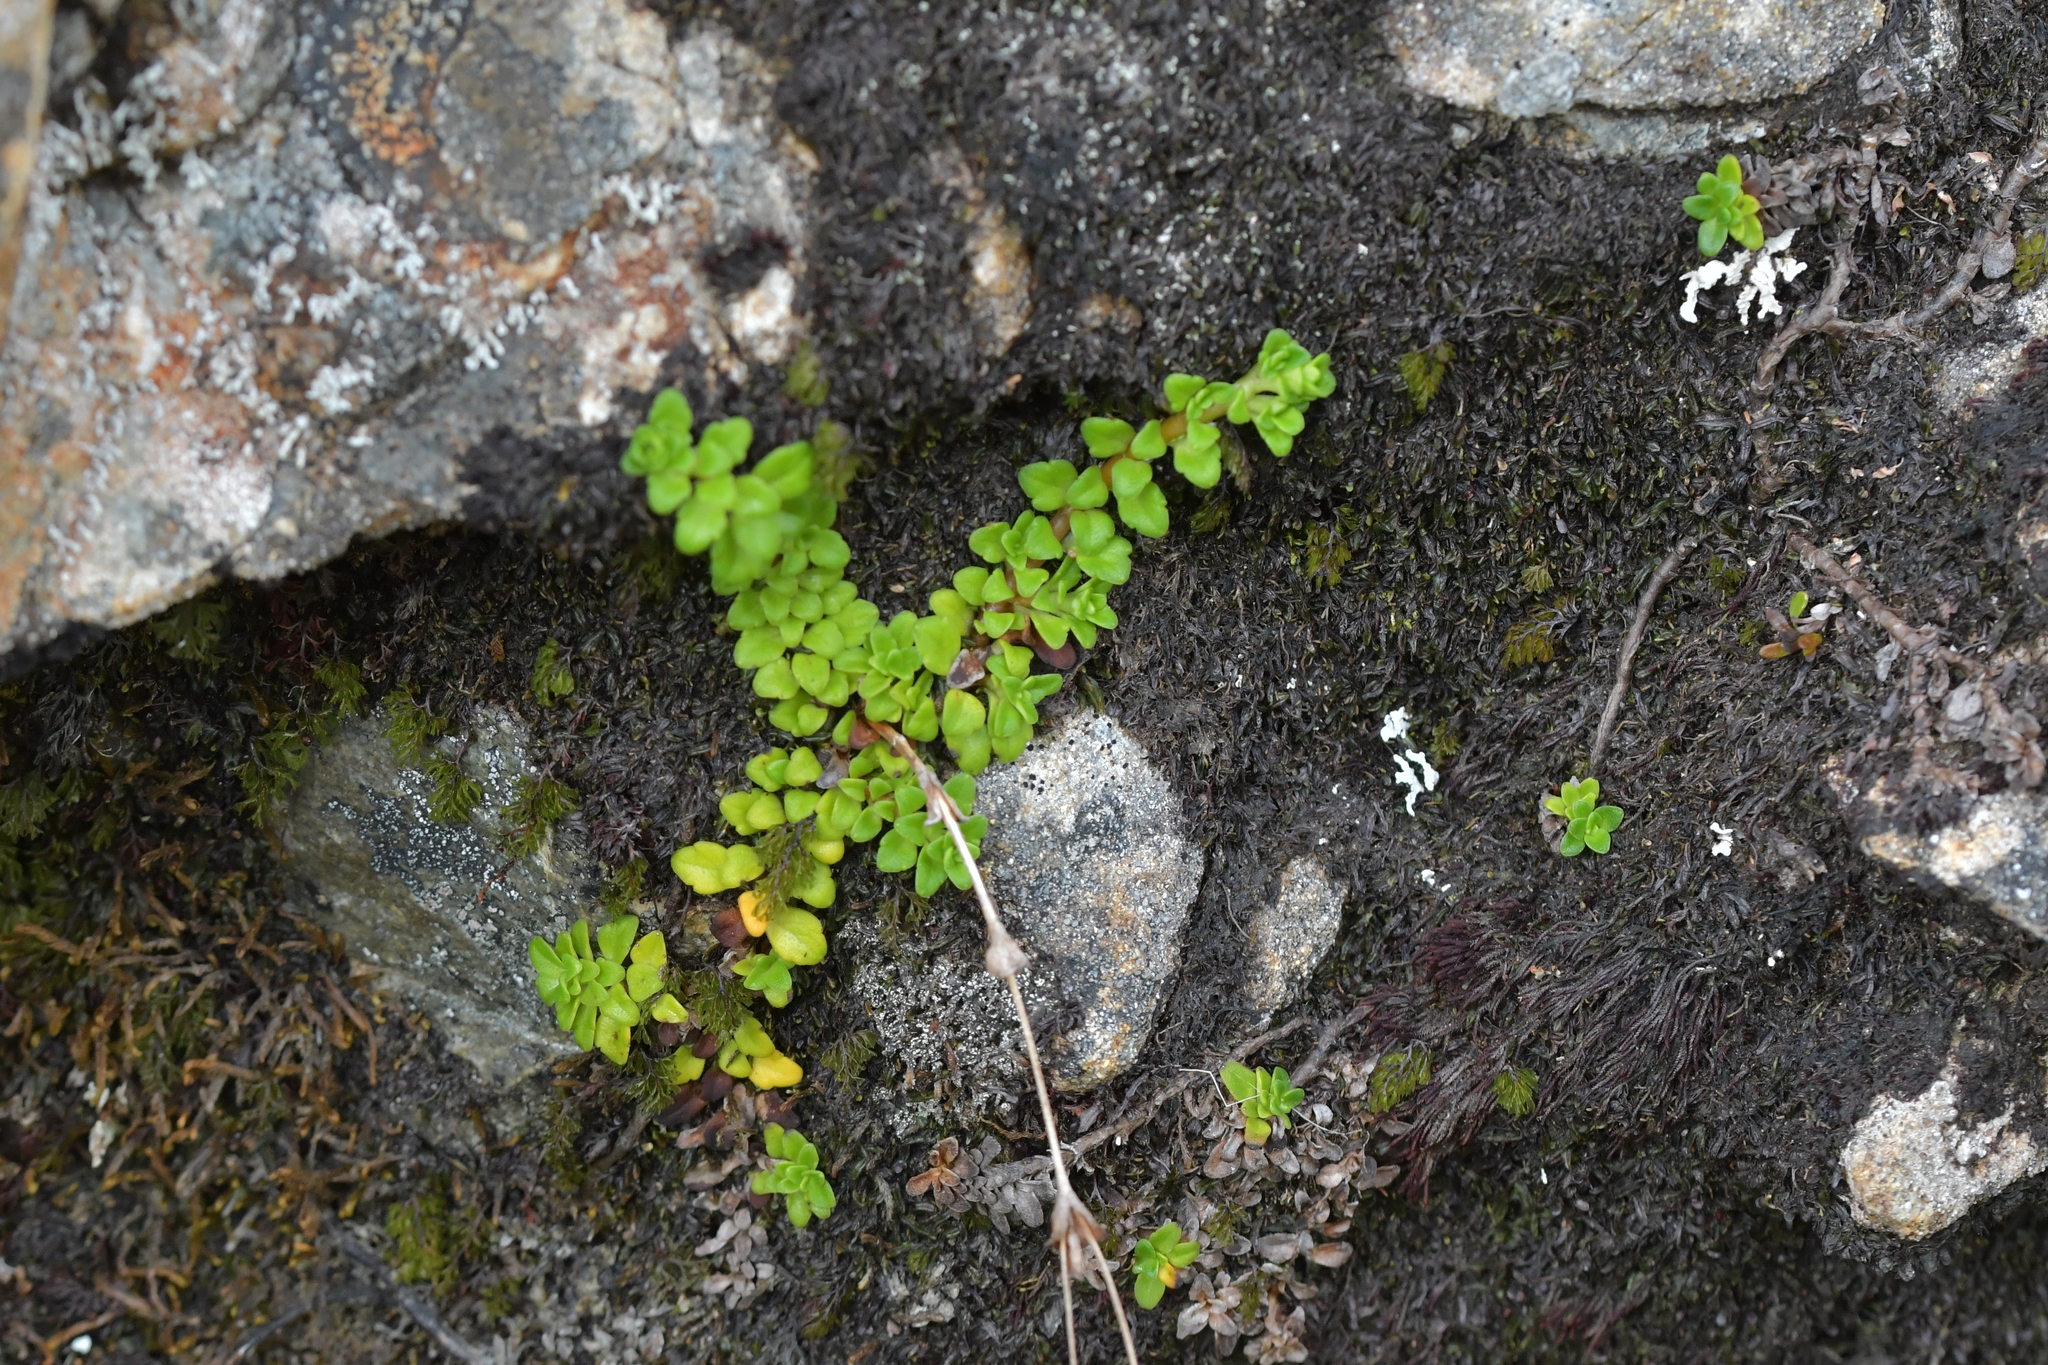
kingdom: Plantae
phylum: Tracheophyta
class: Magnoliopsida
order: Lamiales
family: Plantaginaceae
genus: Ourisia
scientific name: Ourisia caespitosa
